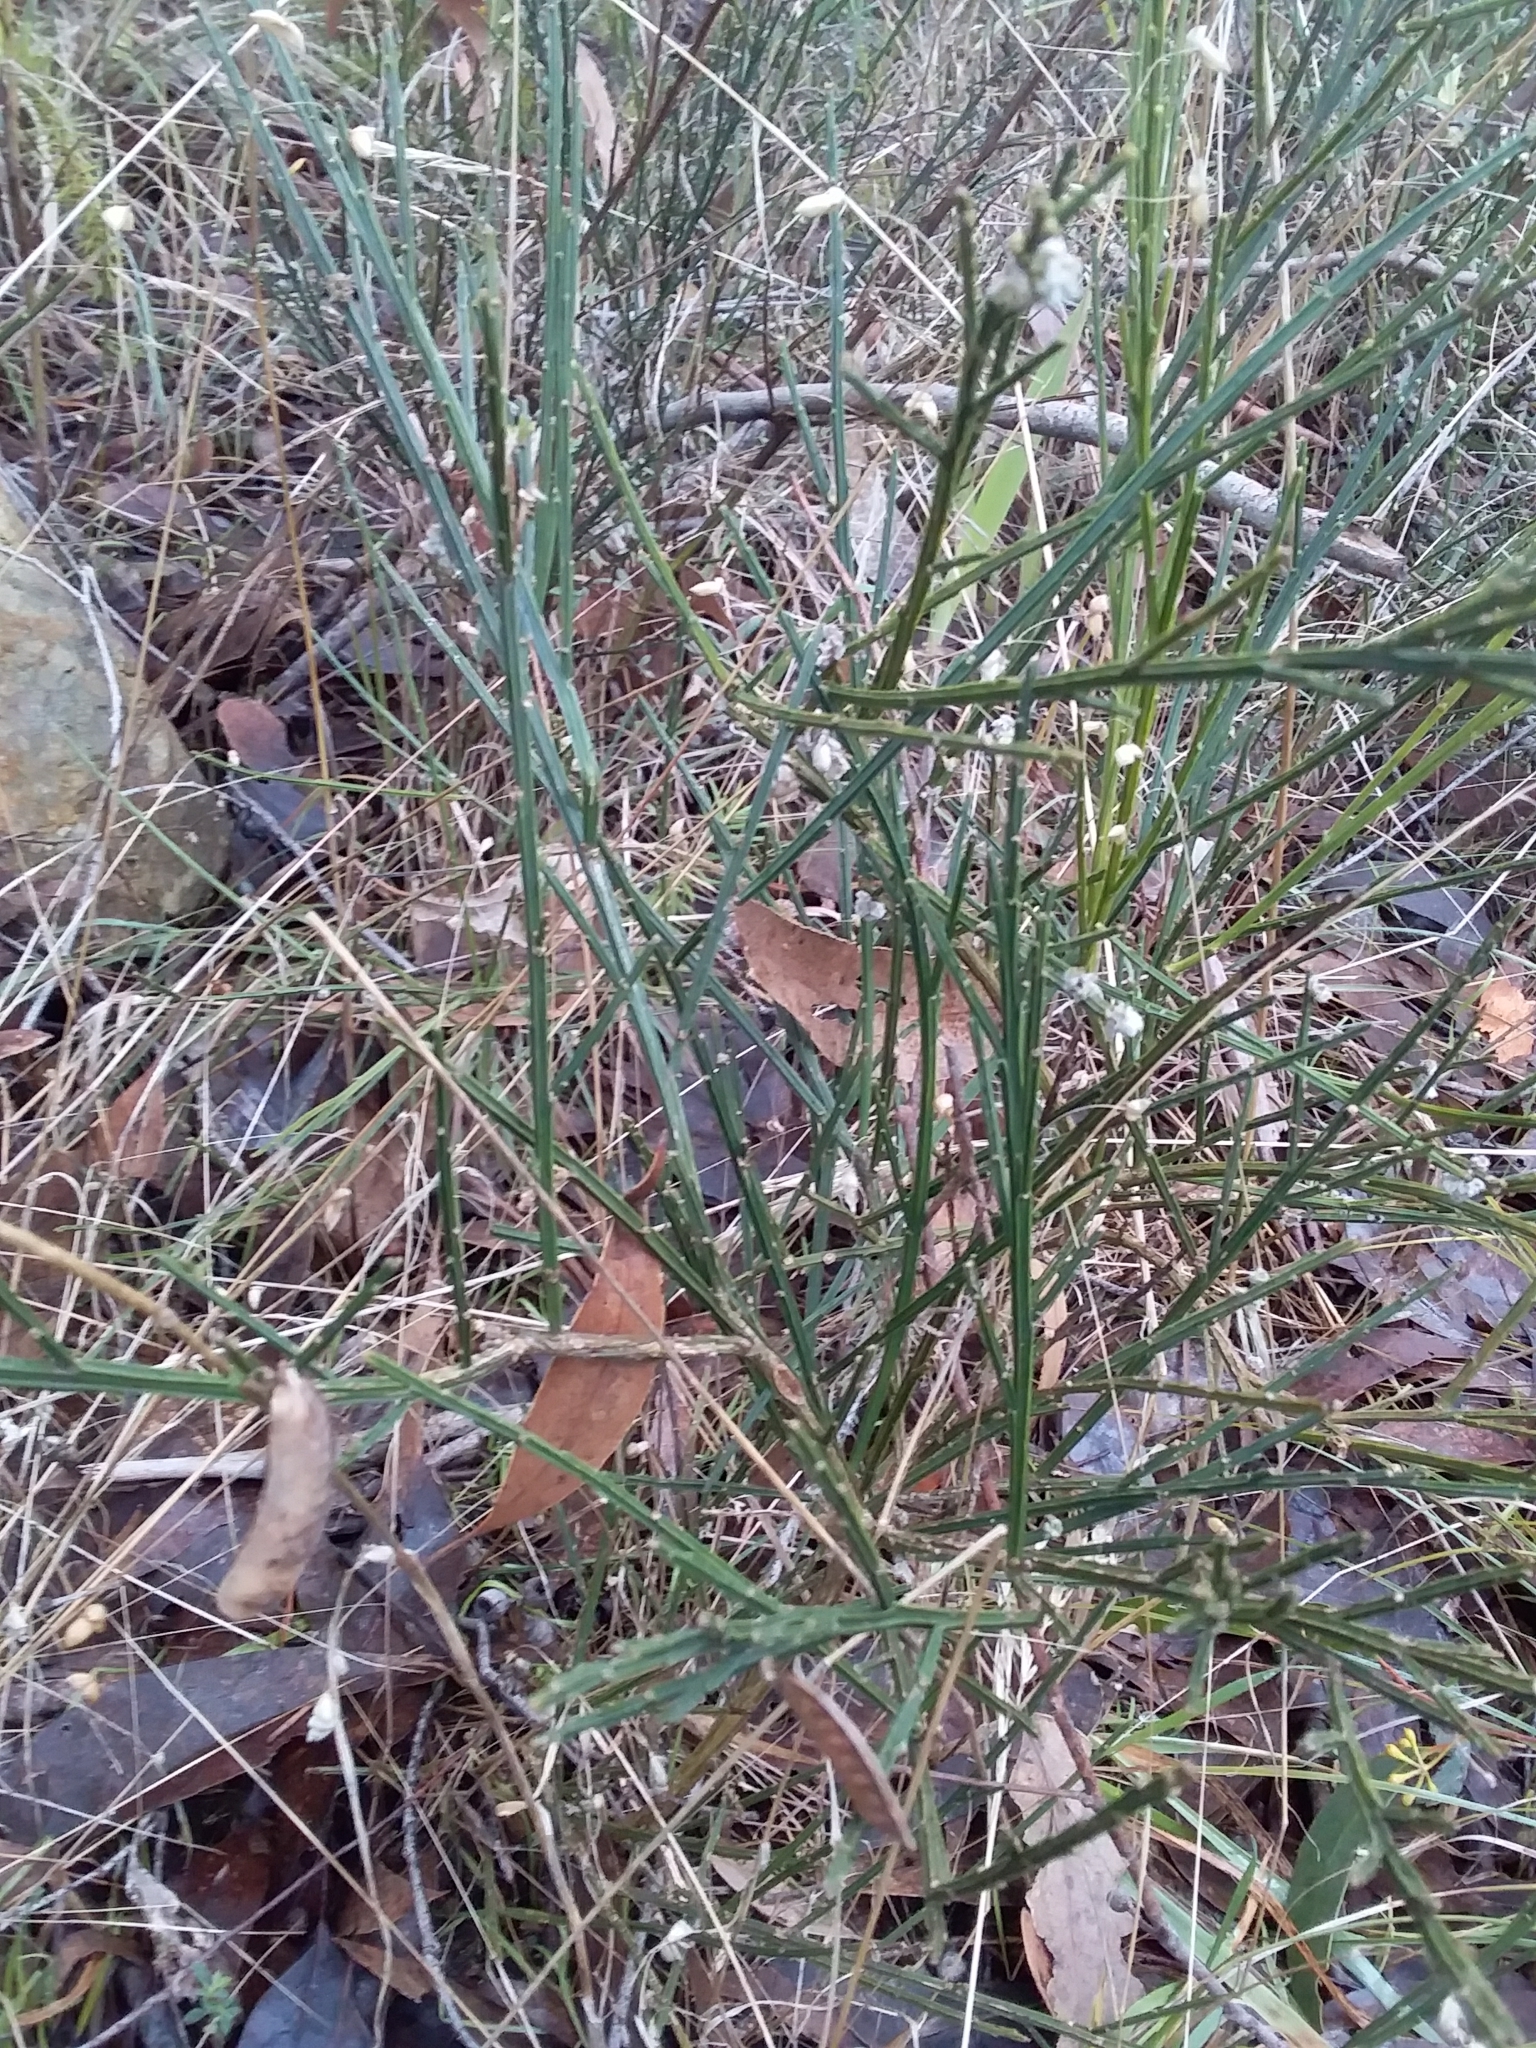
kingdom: Plantae
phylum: Tracheophyta
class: Magnoliopsida
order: Fabales
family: Fabaceae
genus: Cytisus
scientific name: Cytisus scoparius
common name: Scotch broom
